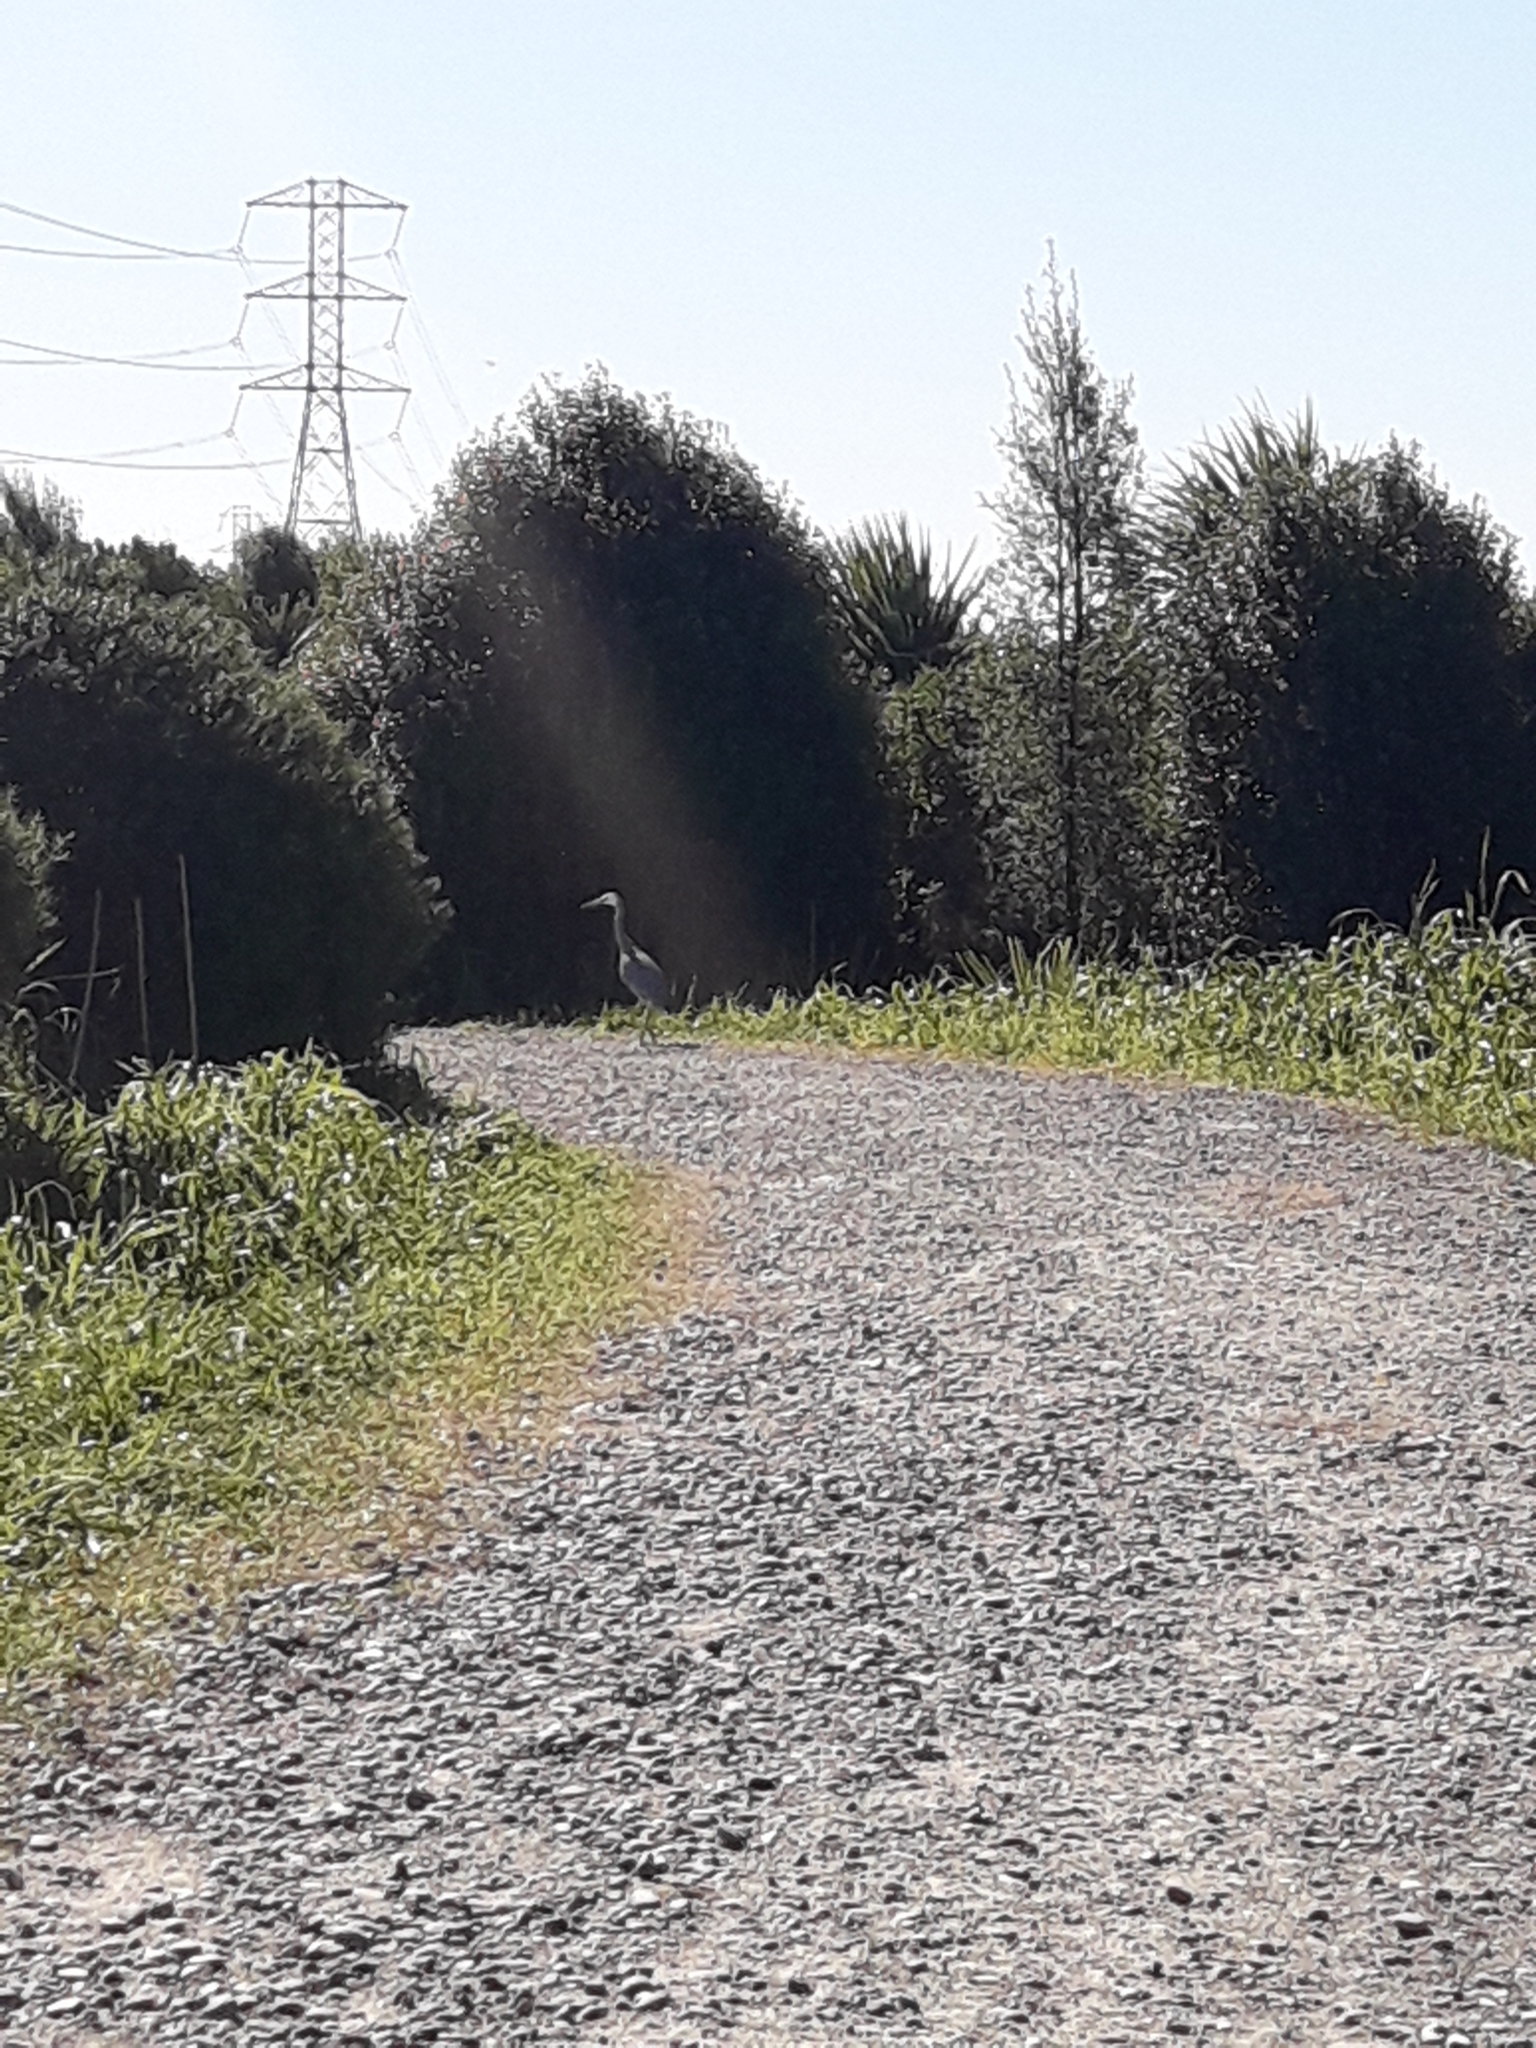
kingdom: Animalia
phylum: Chordata
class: Aves
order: Pelecaniformes
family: Ardeidae
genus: Egretta
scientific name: Egretta novaehollandiae
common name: White-faced heron
